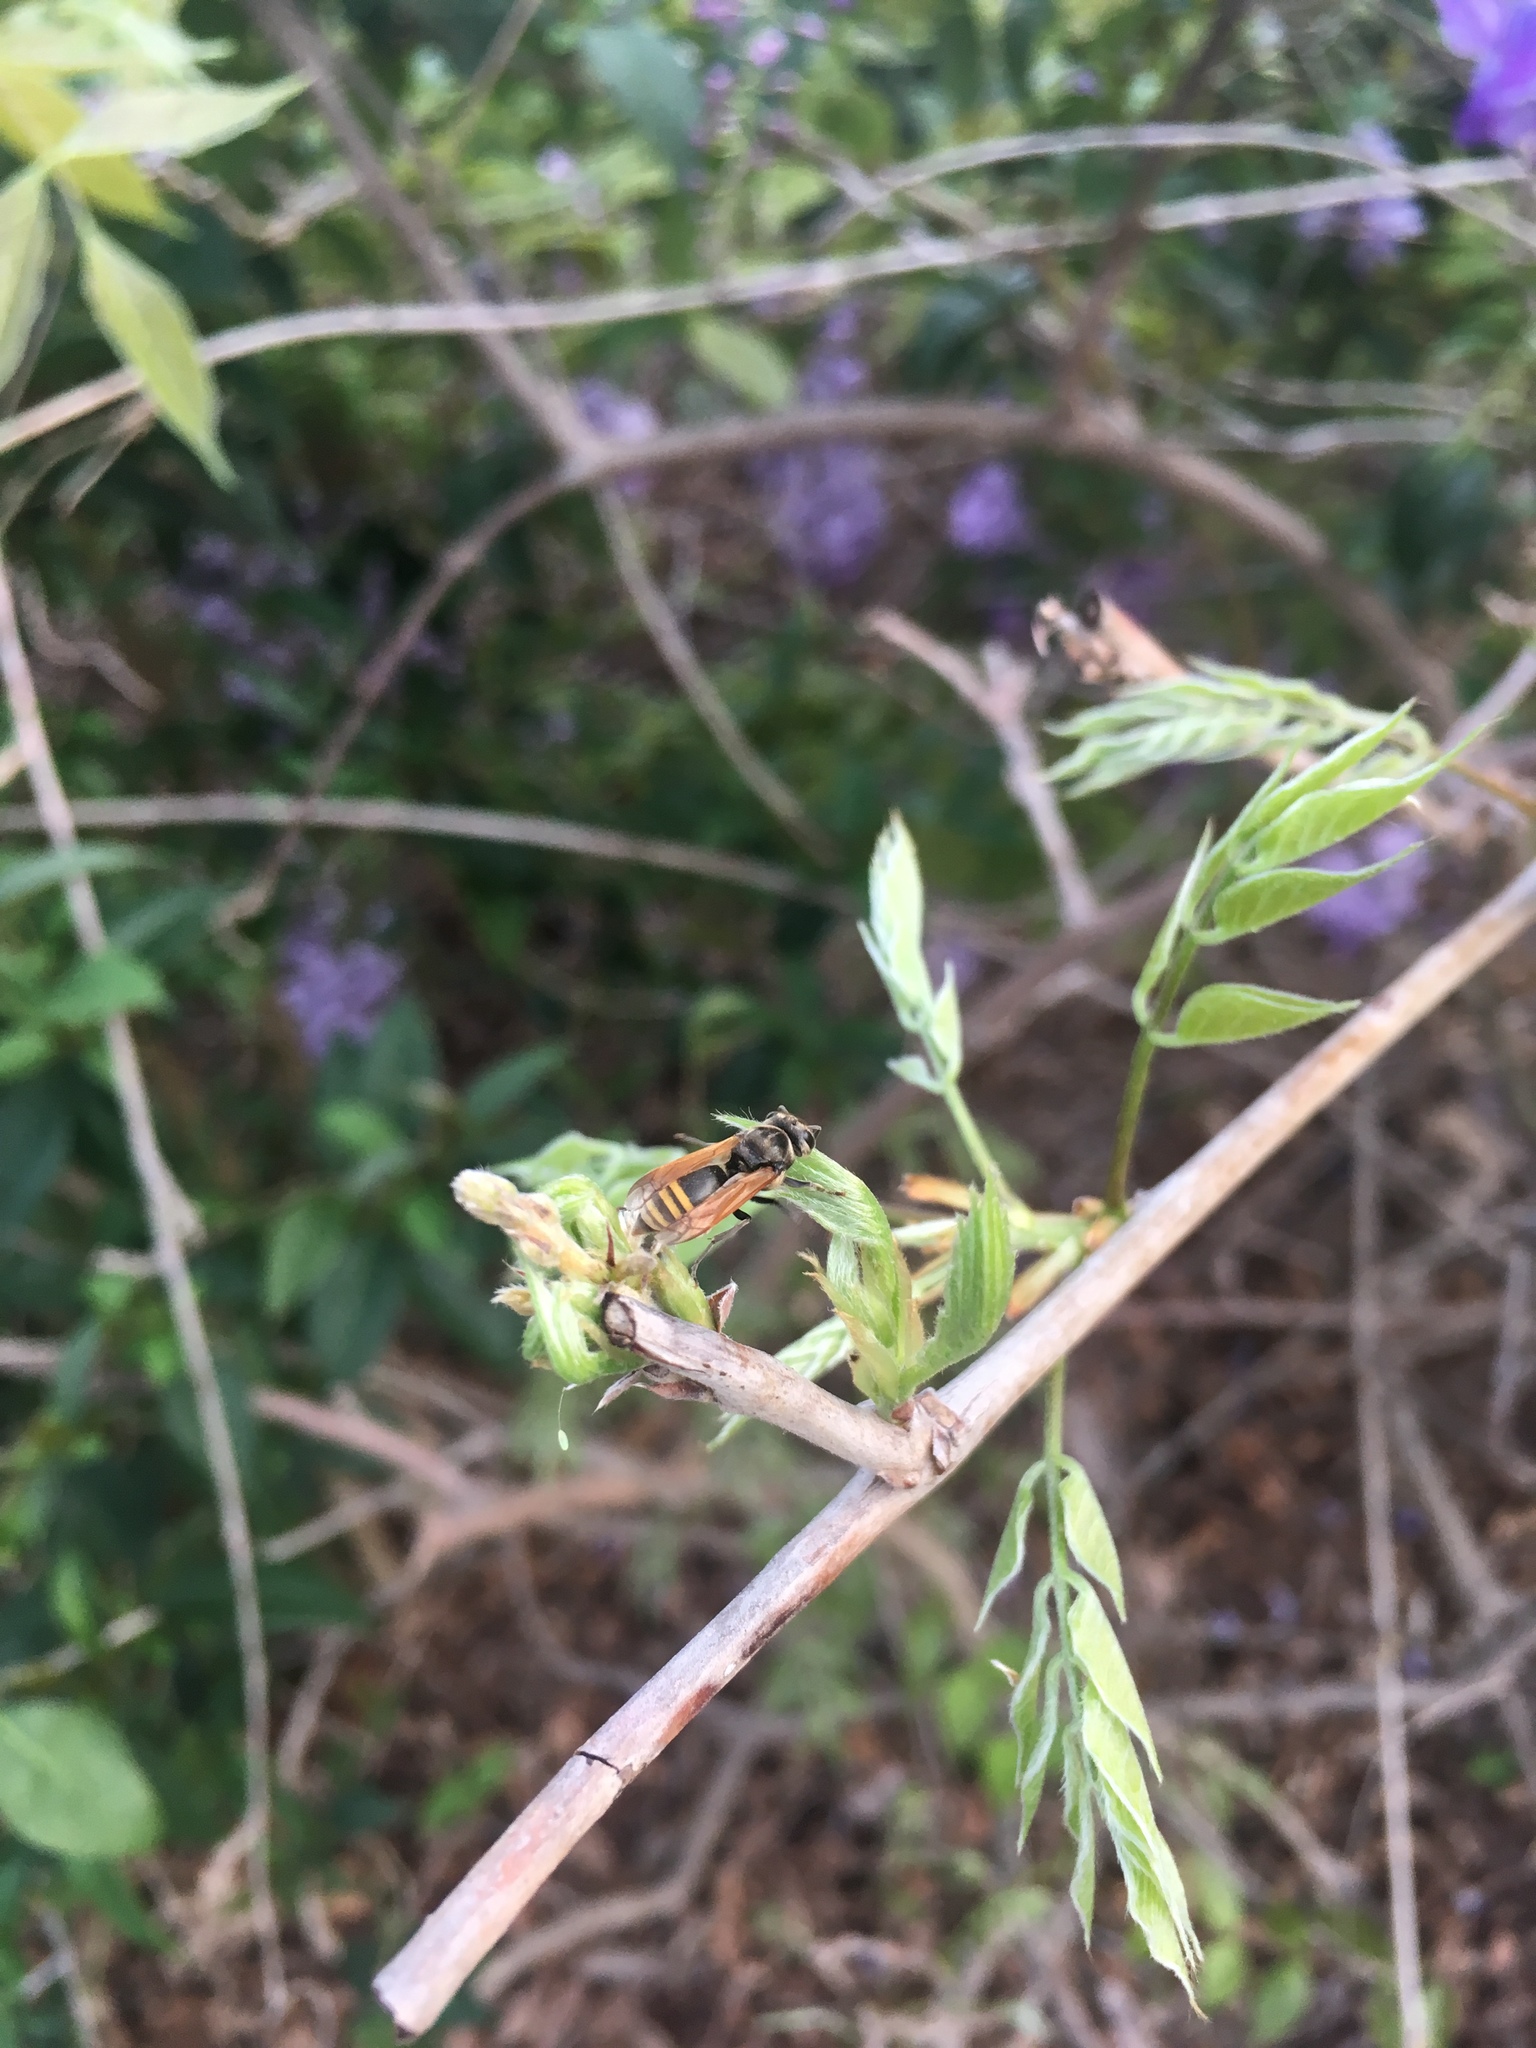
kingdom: Animalia
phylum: Arthropoda
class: Insecta
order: Hymenoptera
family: Vespidae
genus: Brachygastra
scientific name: Brachygastra mellifica
